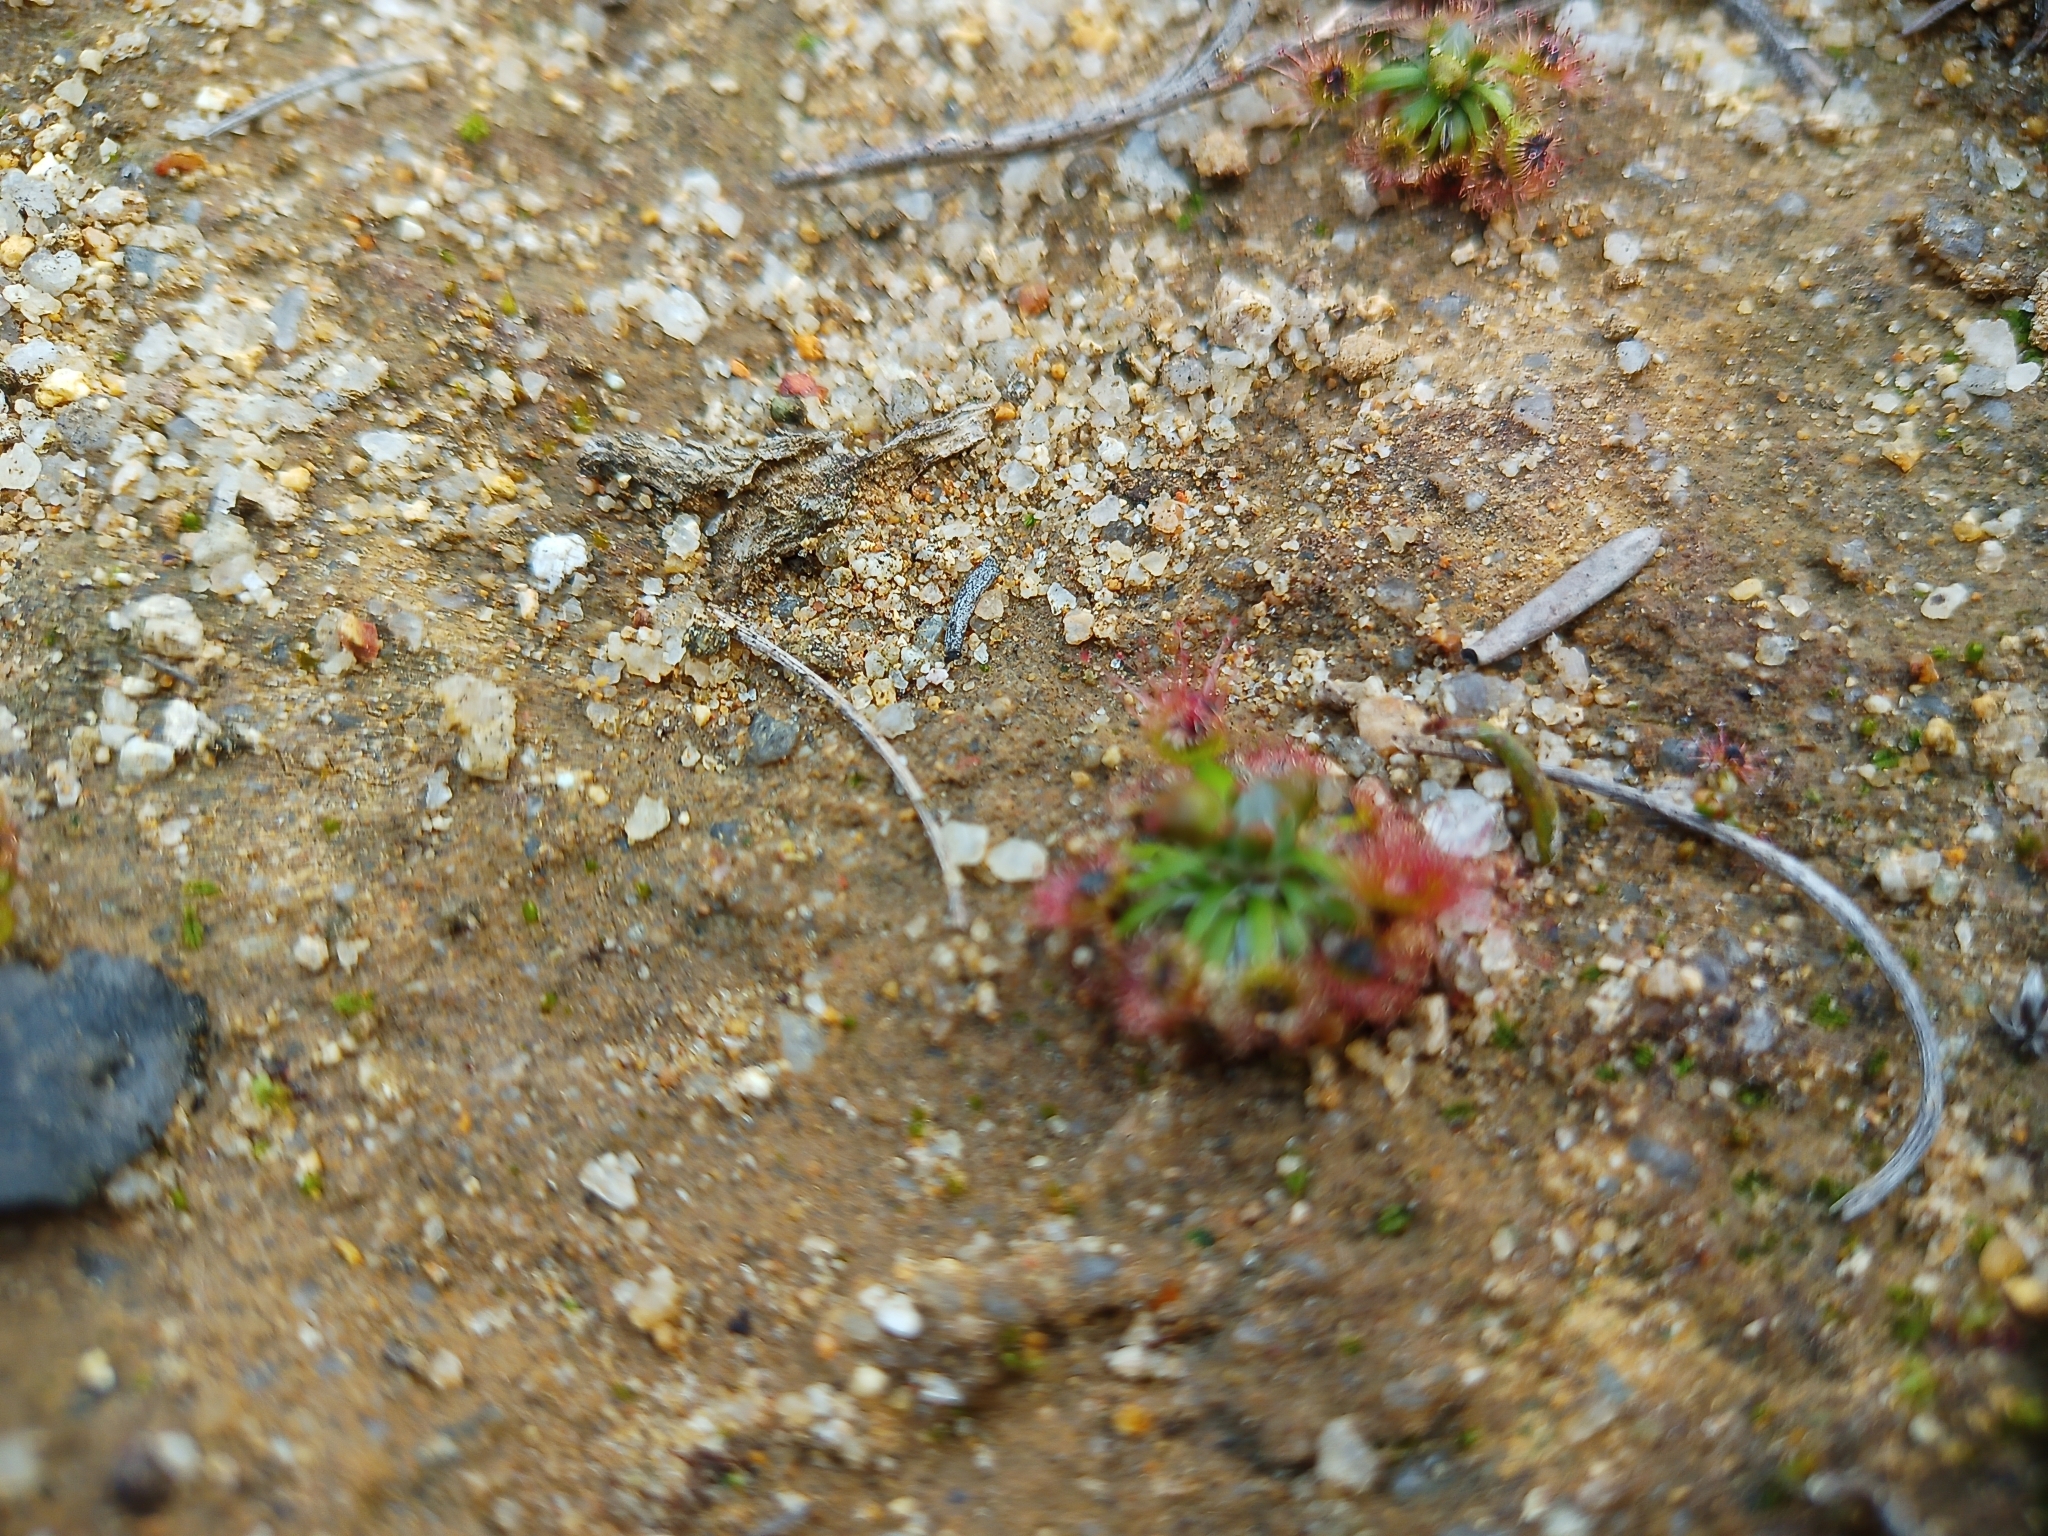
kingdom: Plantae
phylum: Tracheophyta
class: Magnoliopsida
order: Caryophyllales
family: Droseraceae
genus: Drosera
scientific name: Drosera androsacea
